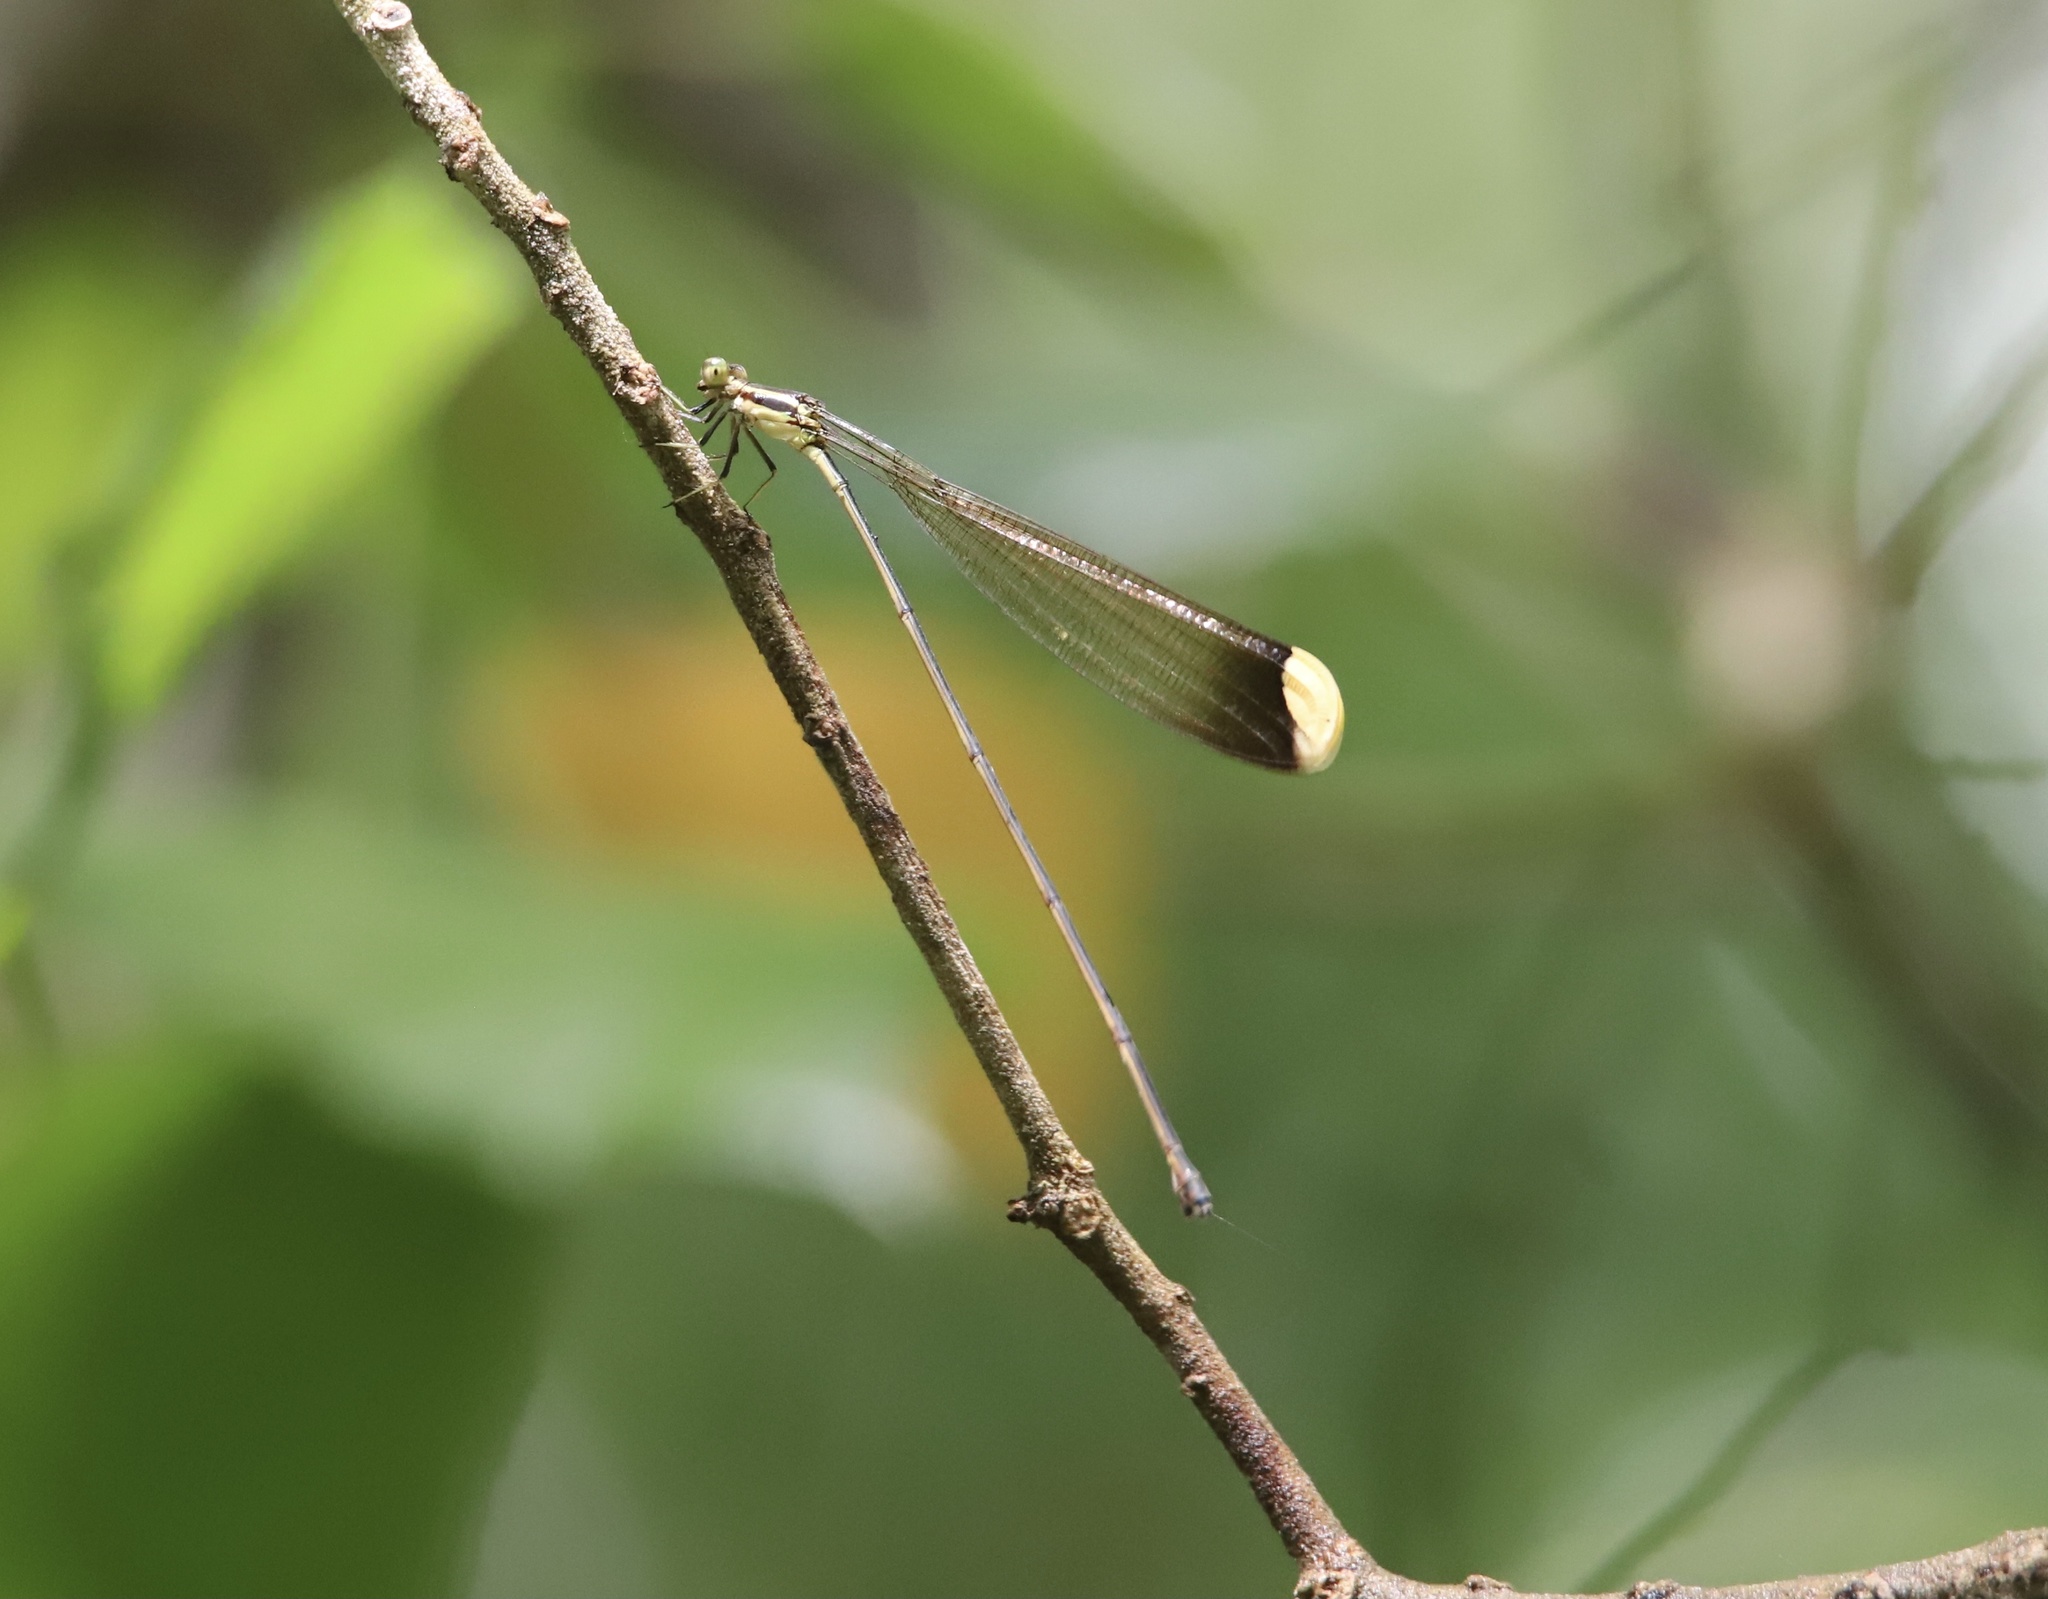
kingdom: Animalia
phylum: Arthropoda
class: Insecta
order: Odonata
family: Coenagrionidae
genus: Mecistogaster
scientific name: Mecistogaster ornata
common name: Ornate helicopter
